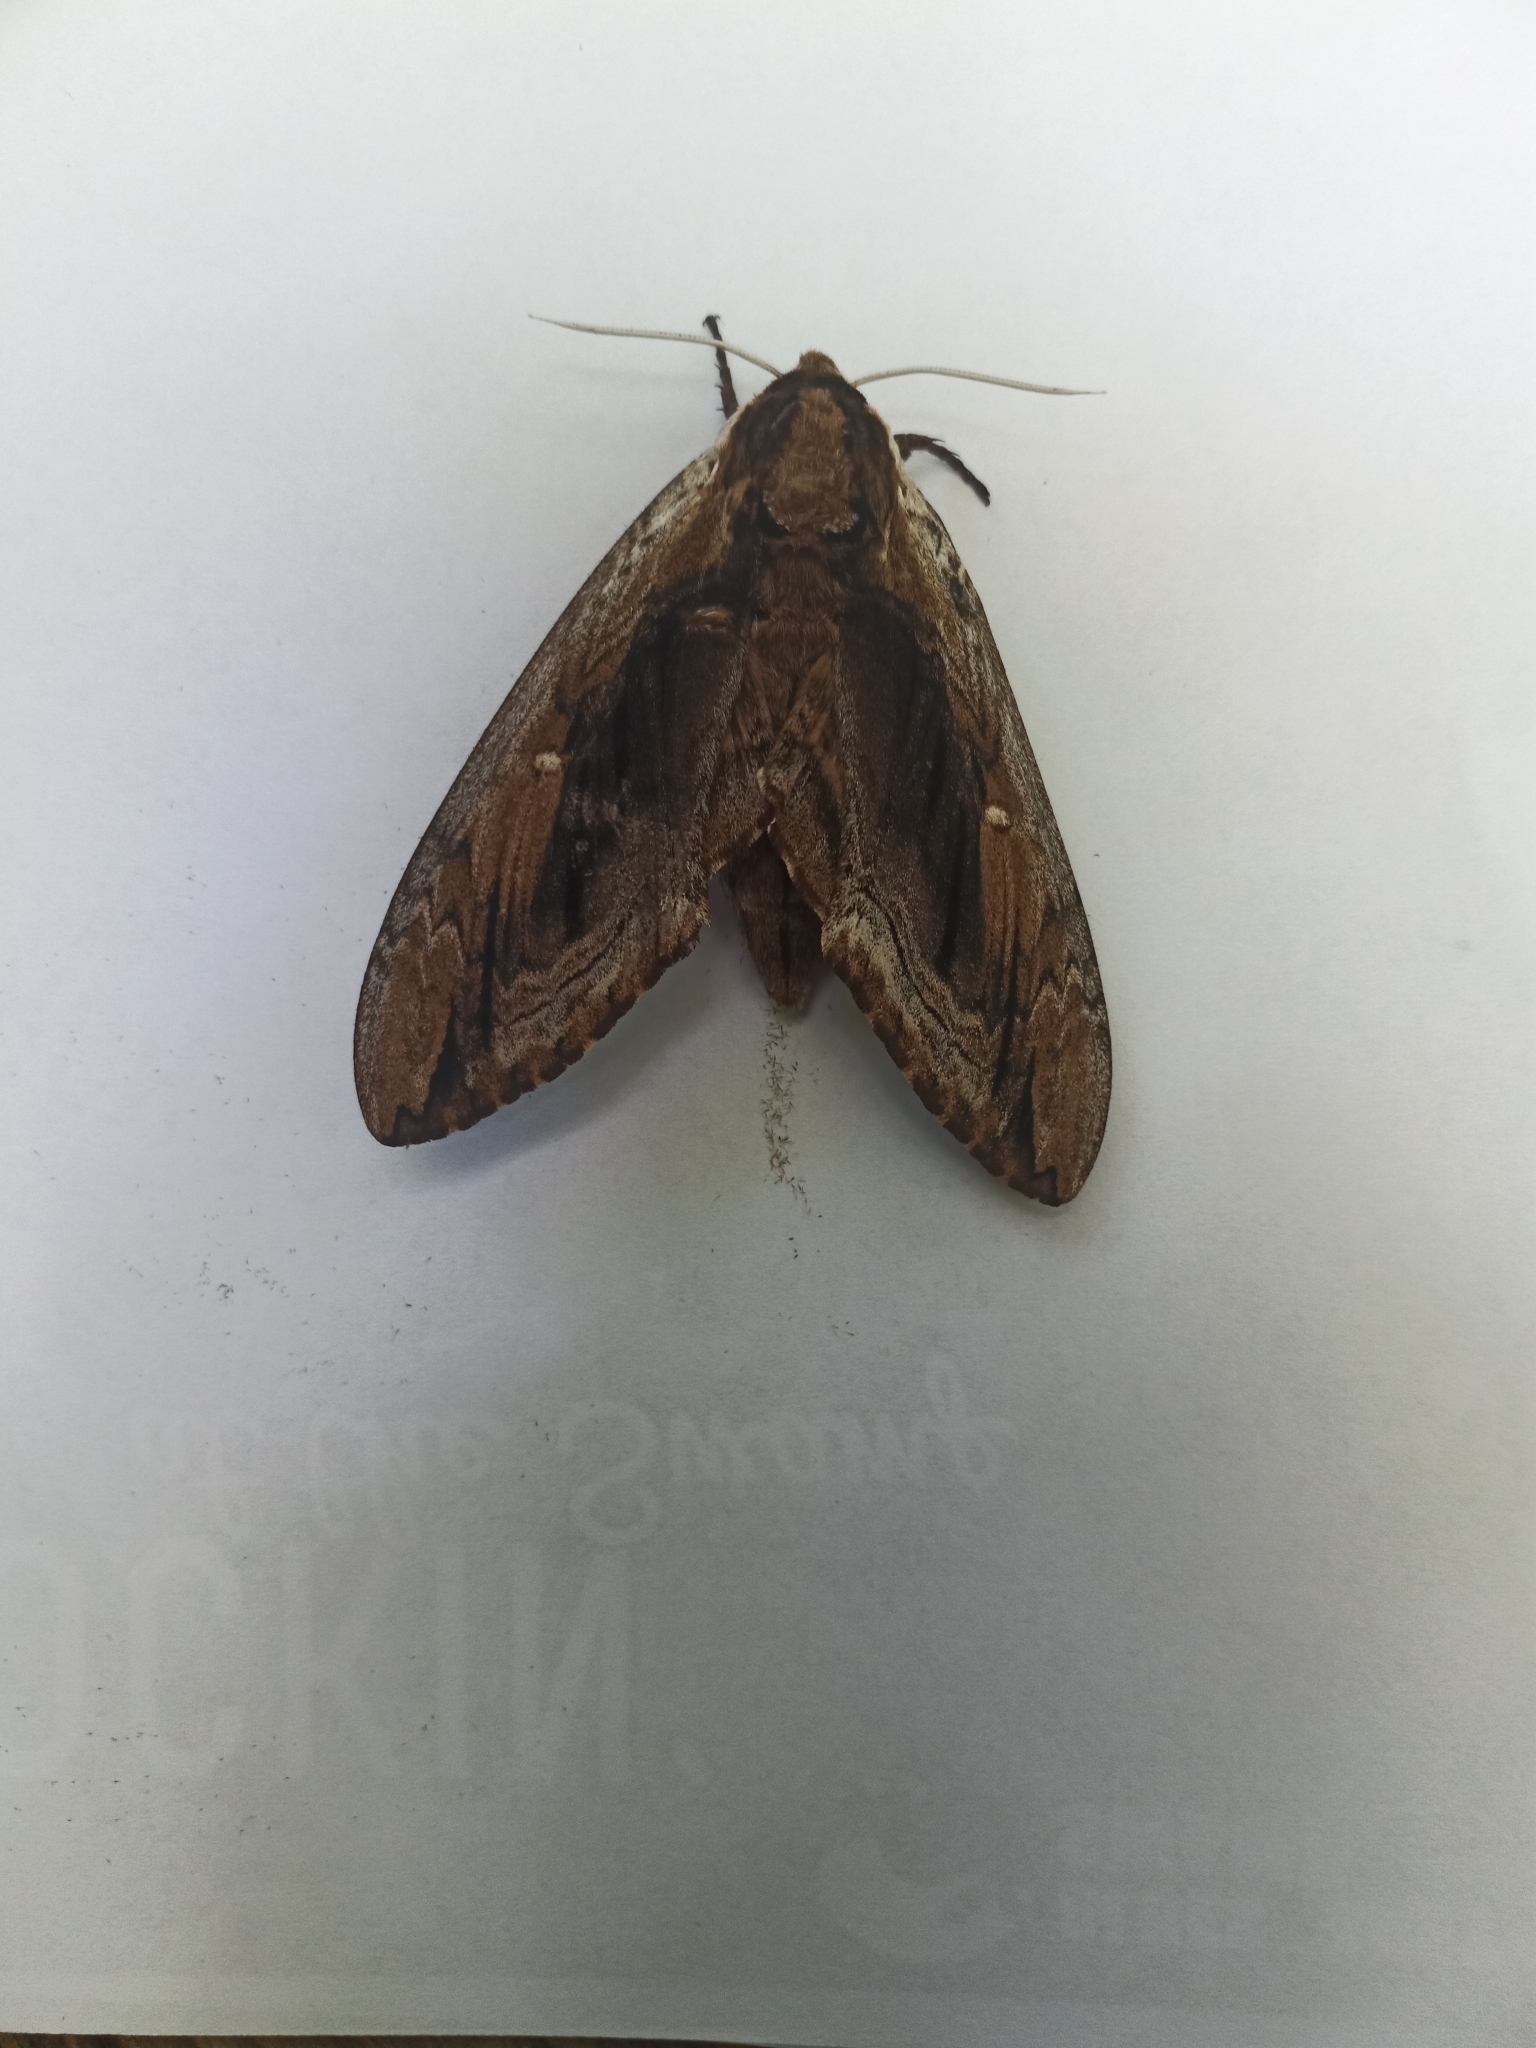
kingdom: Animalia
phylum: Arthropoda
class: Insecta
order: Lepidoptera
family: Sphingidae
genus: Ceratomia
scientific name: Ceratomia amyntor
